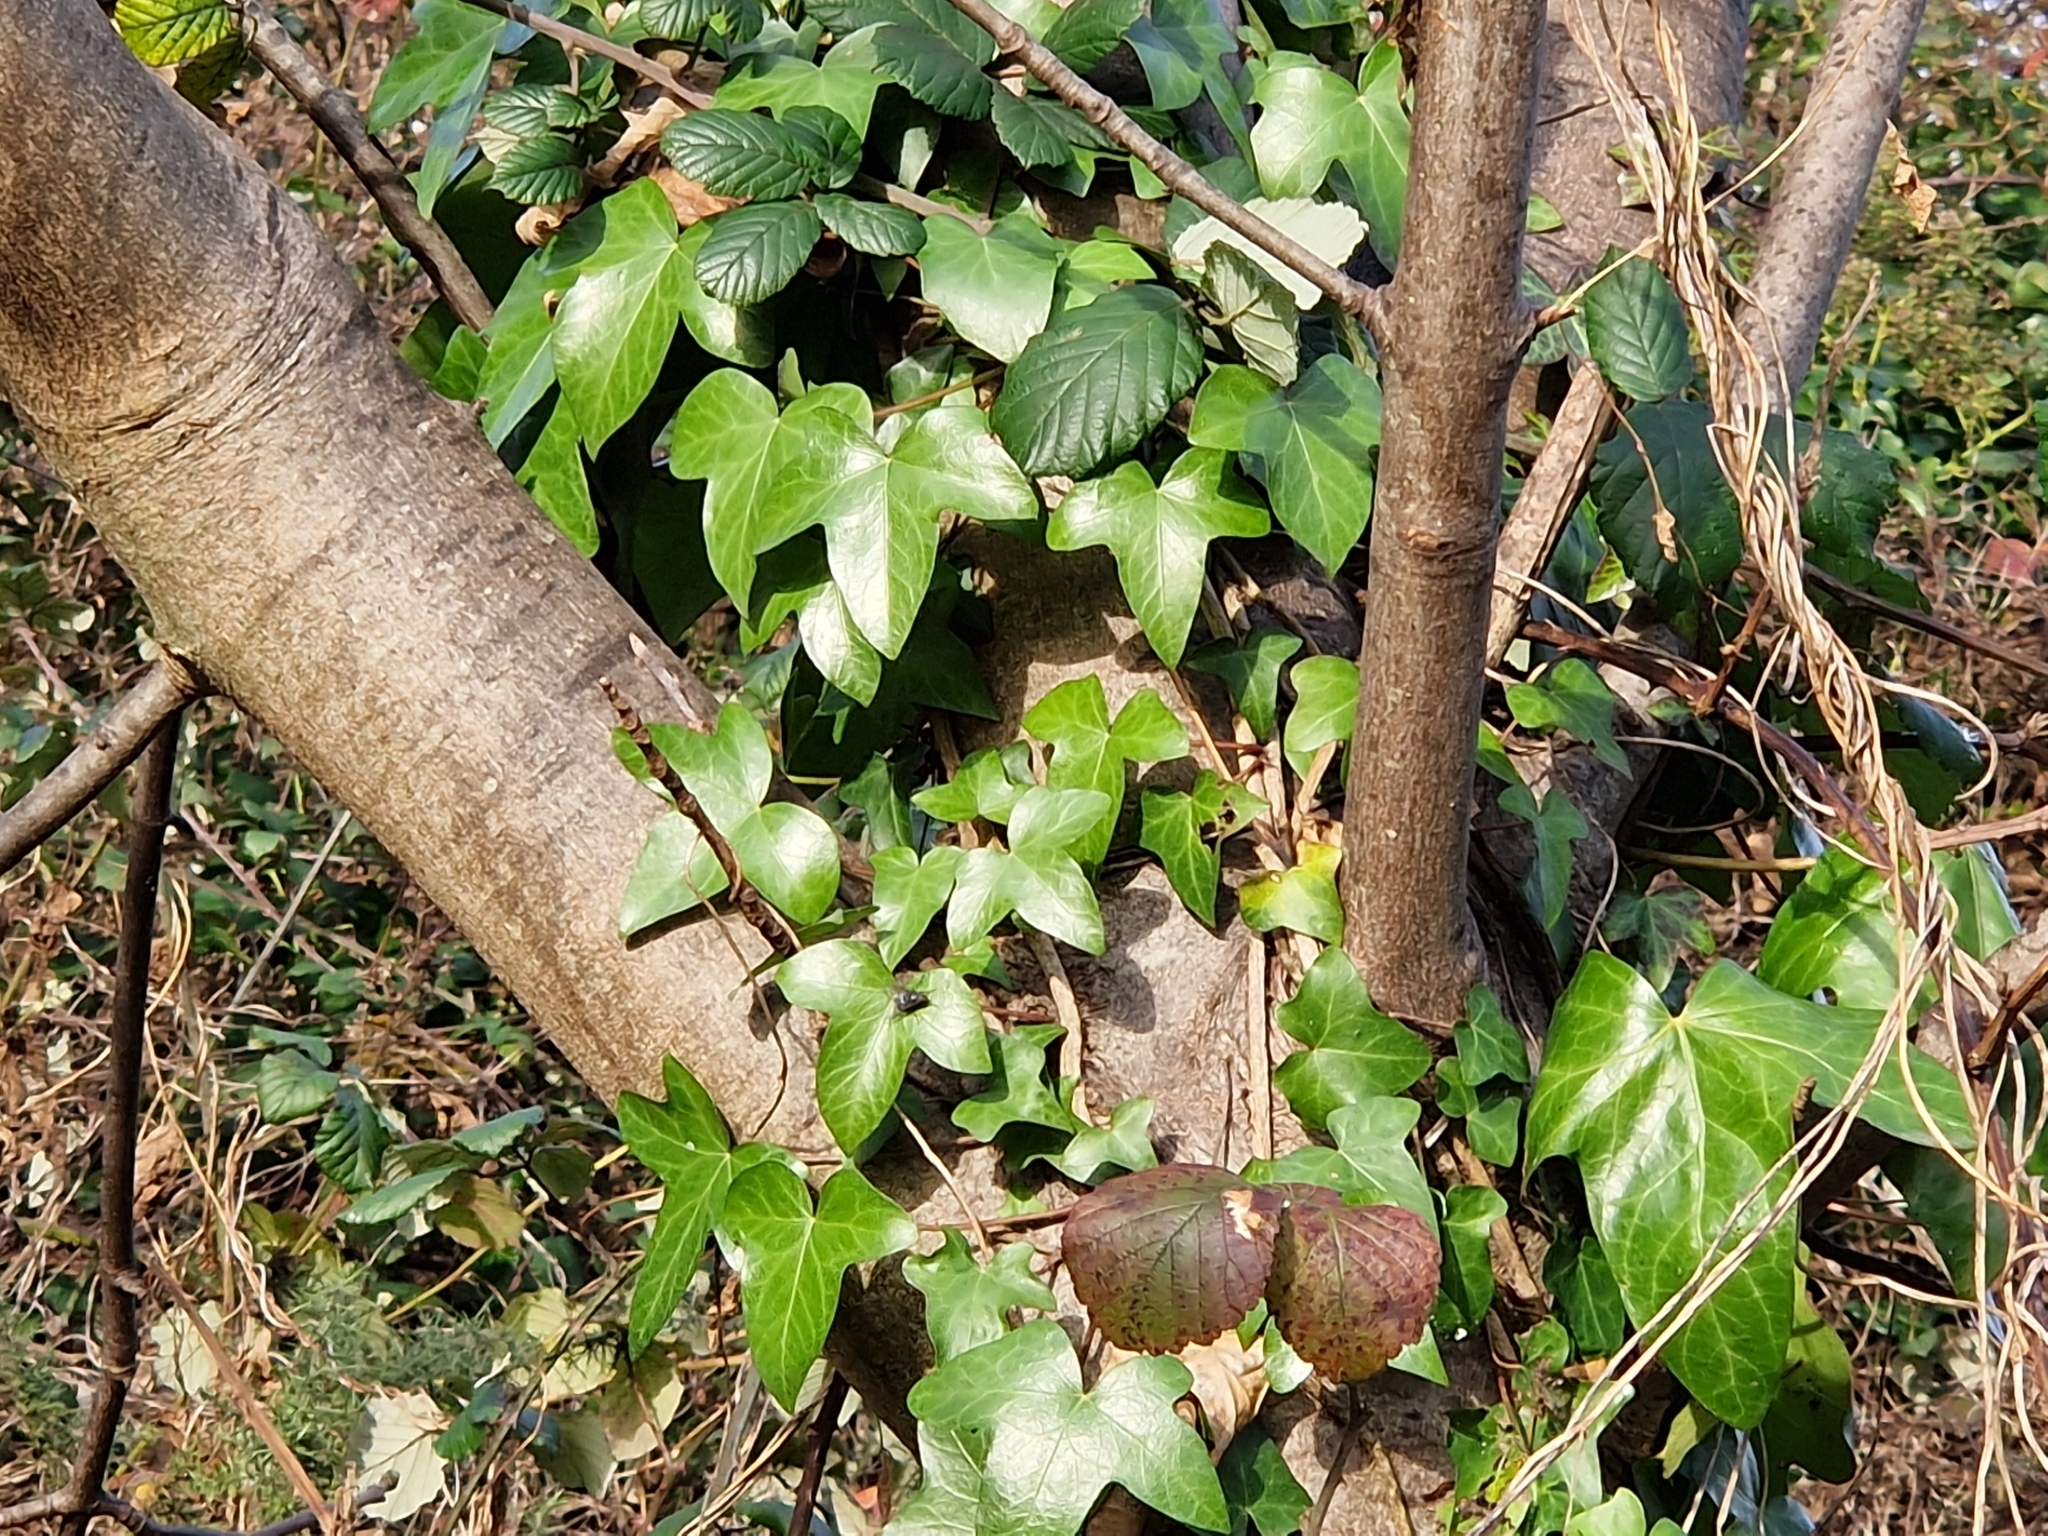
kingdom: Plantae
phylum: Tracheophyta
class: Magnoliopsida
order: Apiales
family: Araliaceae
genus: Hedera
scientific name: Hedera hibernica
